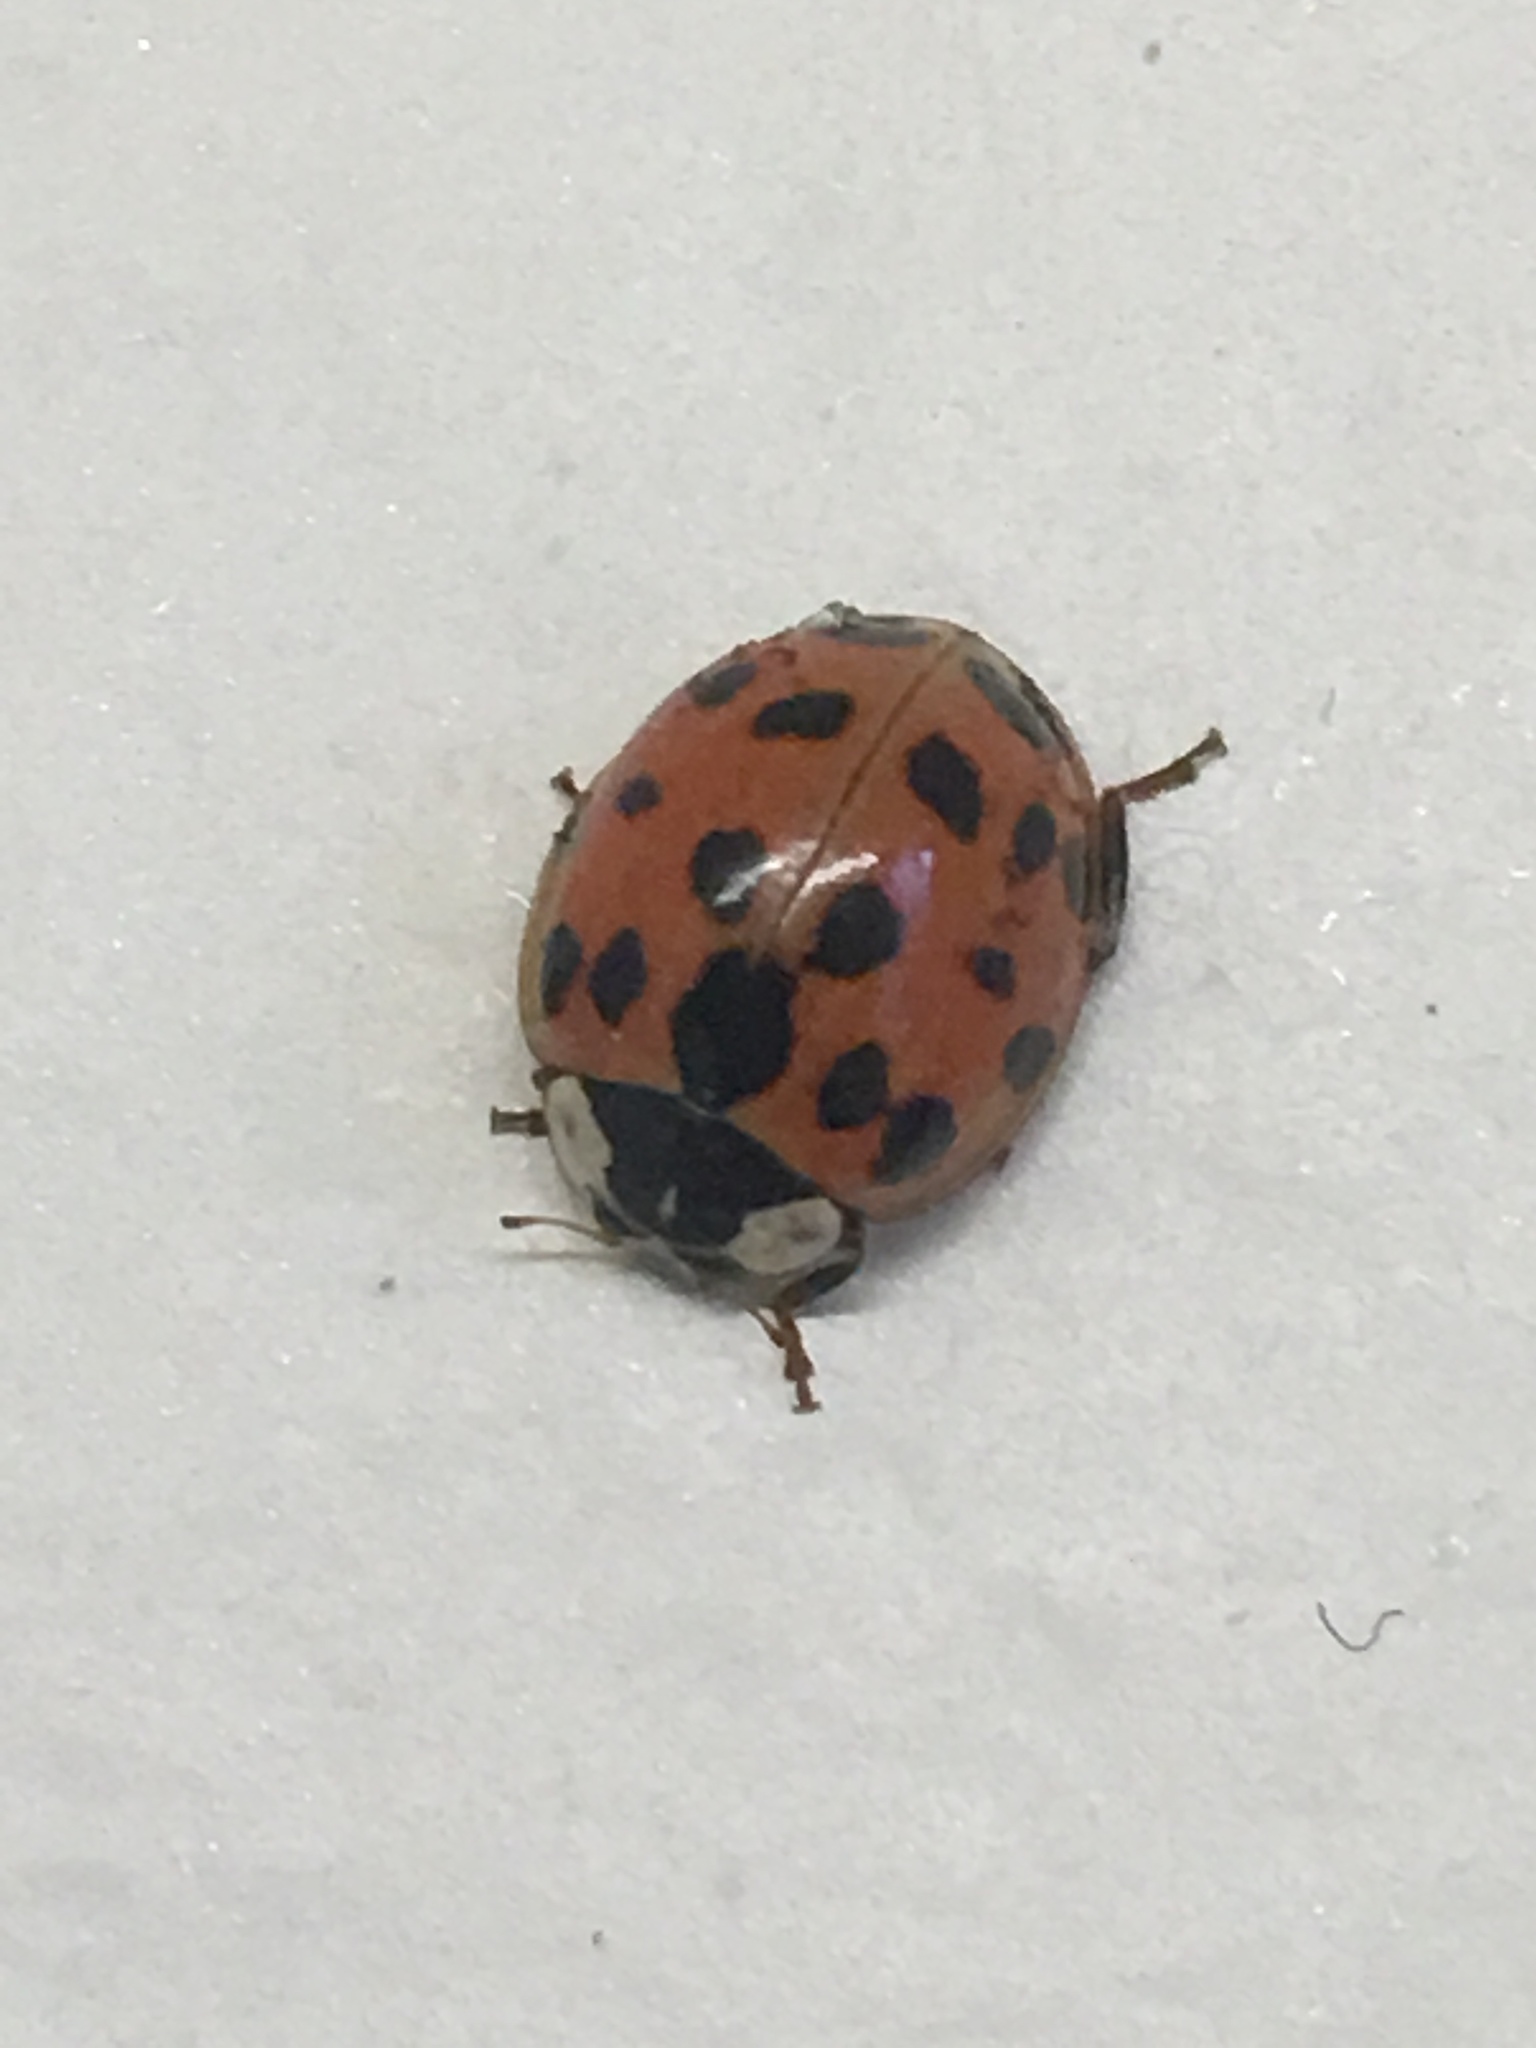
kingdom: Animalia
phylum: Arthropoda
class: Insecta
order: Coleoptera
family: Coccinellidae
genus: Harmonia
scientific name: Harmonia axyridis
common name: Harlequin ladybird
